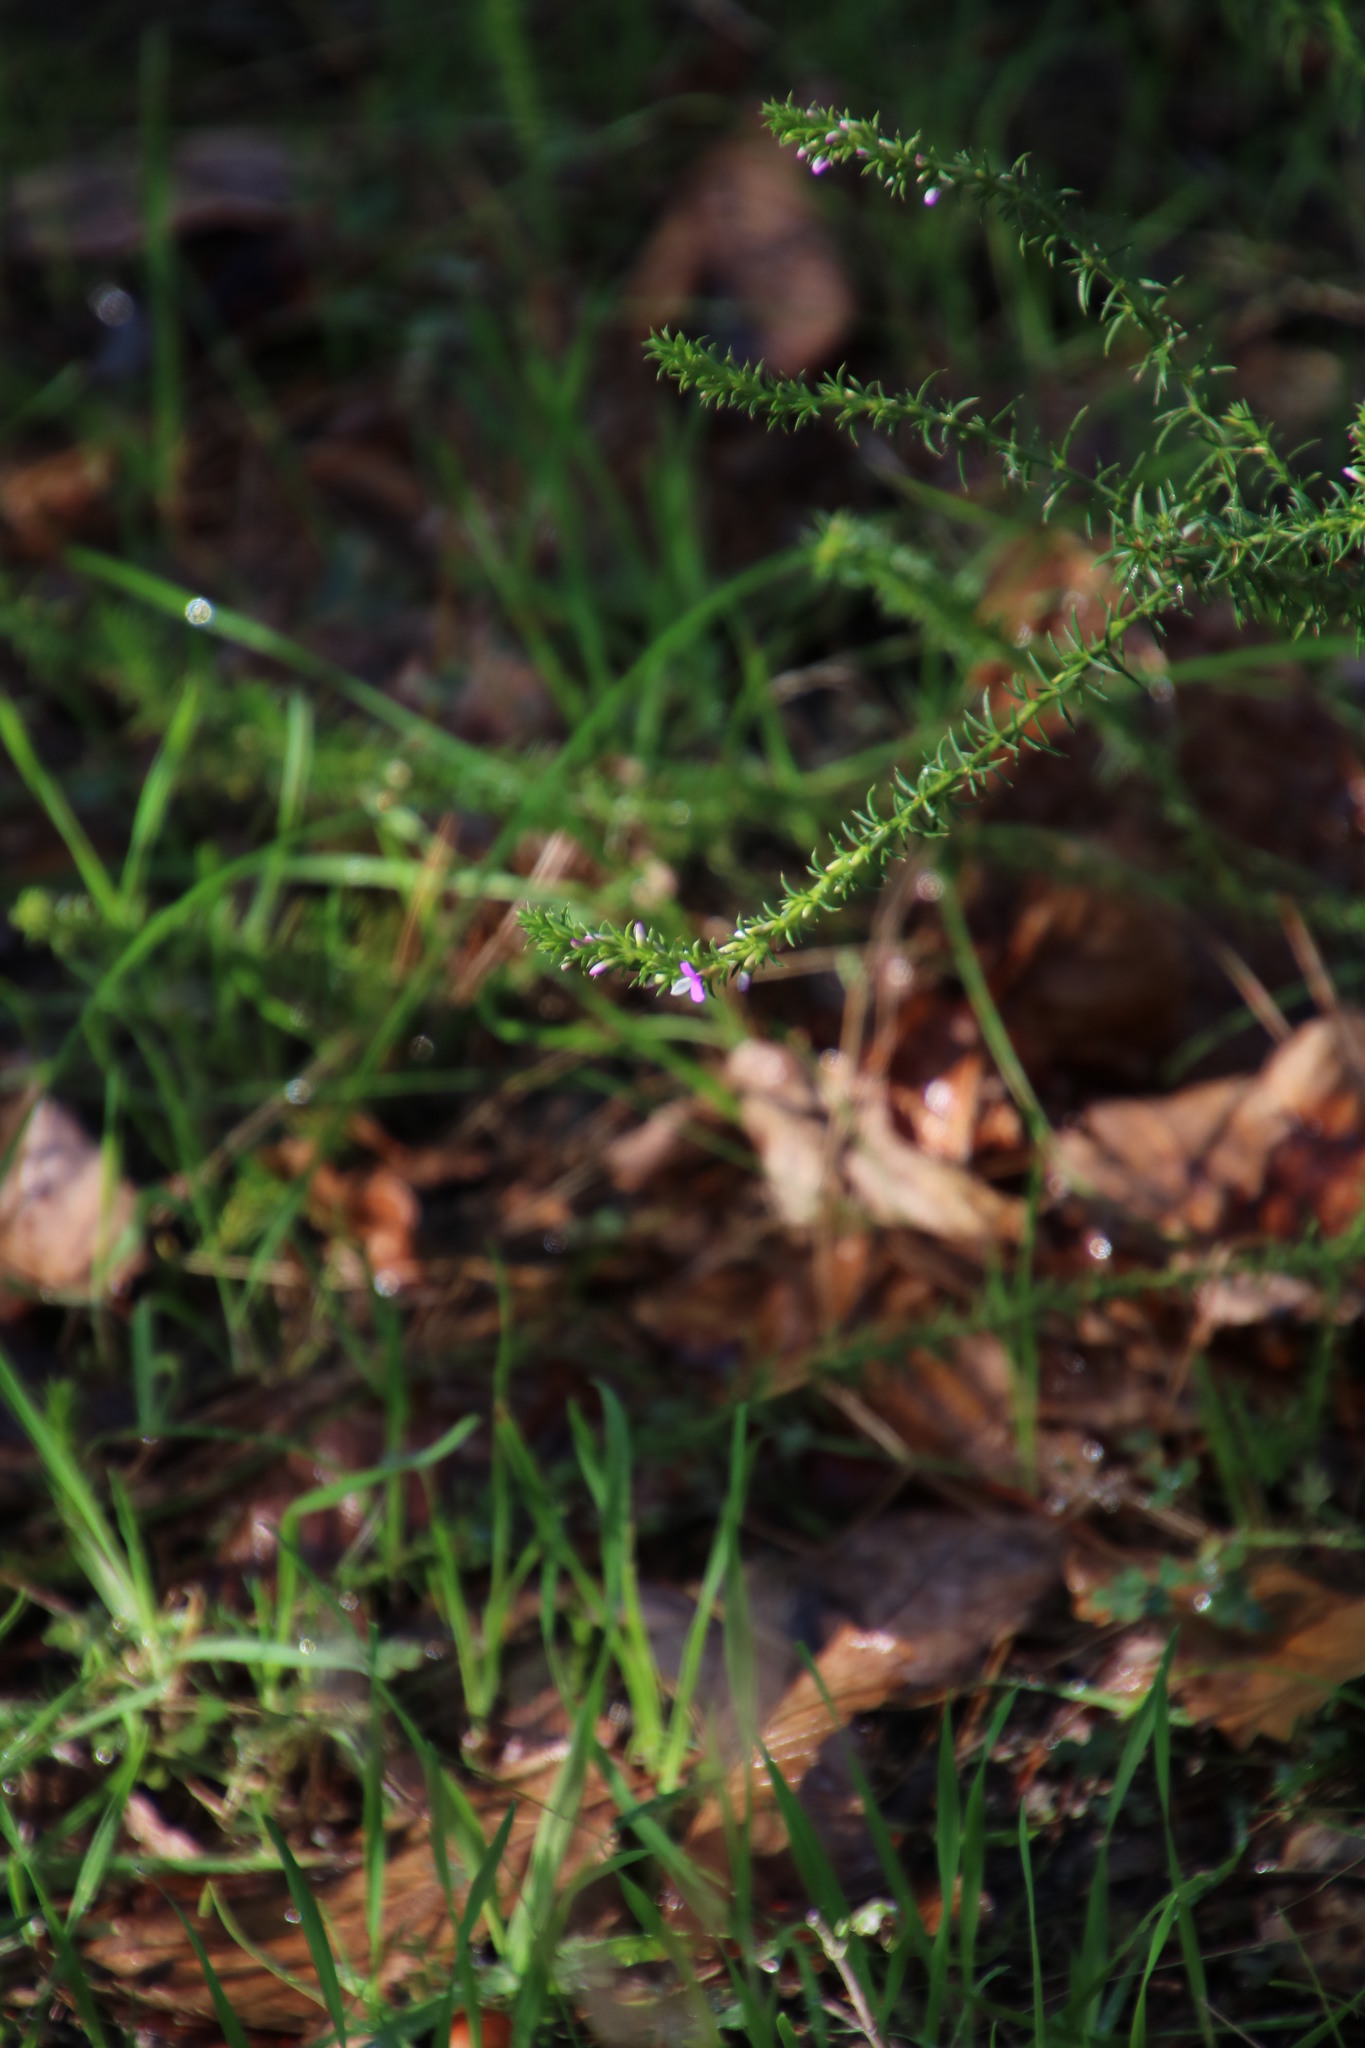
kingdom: Plantae
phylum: Tracheophyta
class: Magnoliopsida
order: Fabales
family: Polygalaceae
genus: Muraltia
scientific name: Muraltia heisteria
